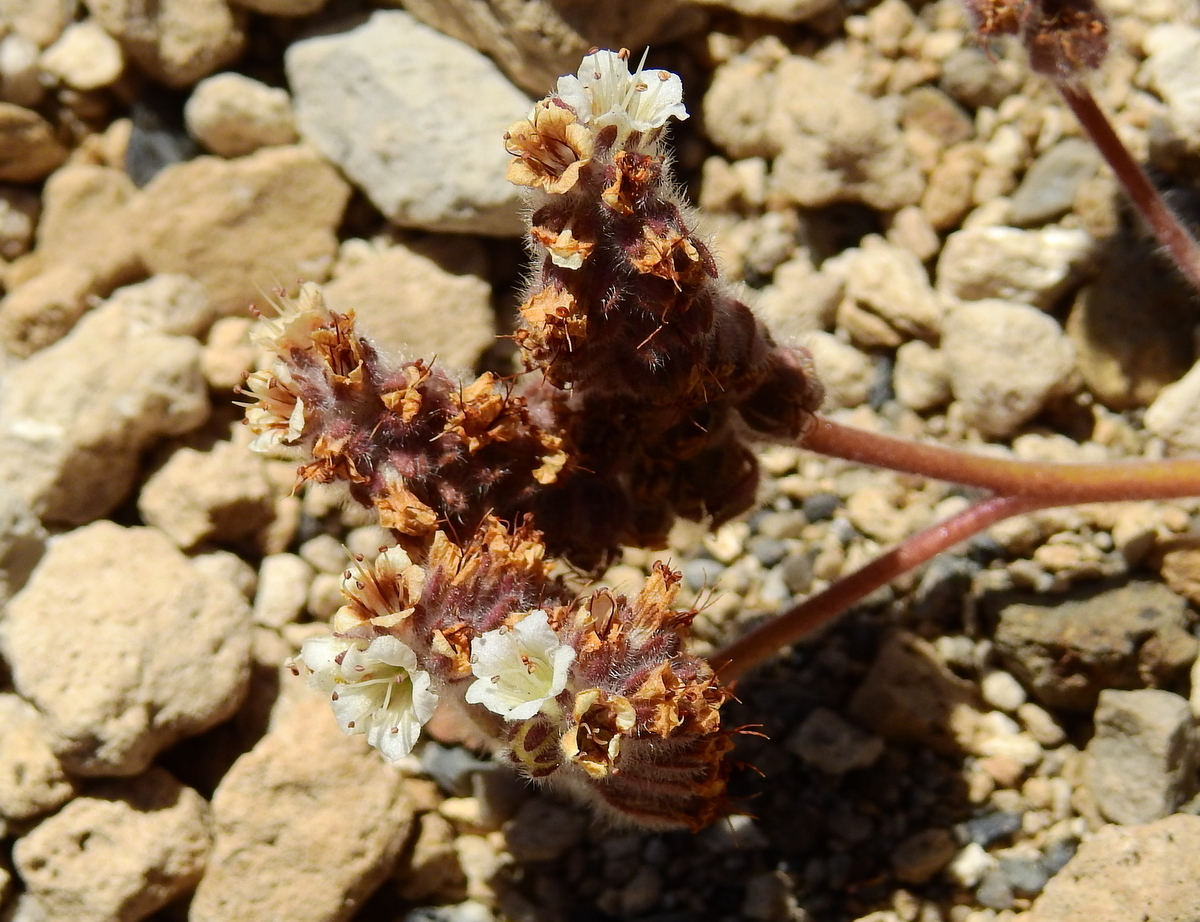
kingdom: Plantae
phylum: Tracheophyta
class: Magnoliopsida
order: Boraginales
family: Hydrophyllaceae
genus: Phacelia
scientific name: Phacelia secunda
